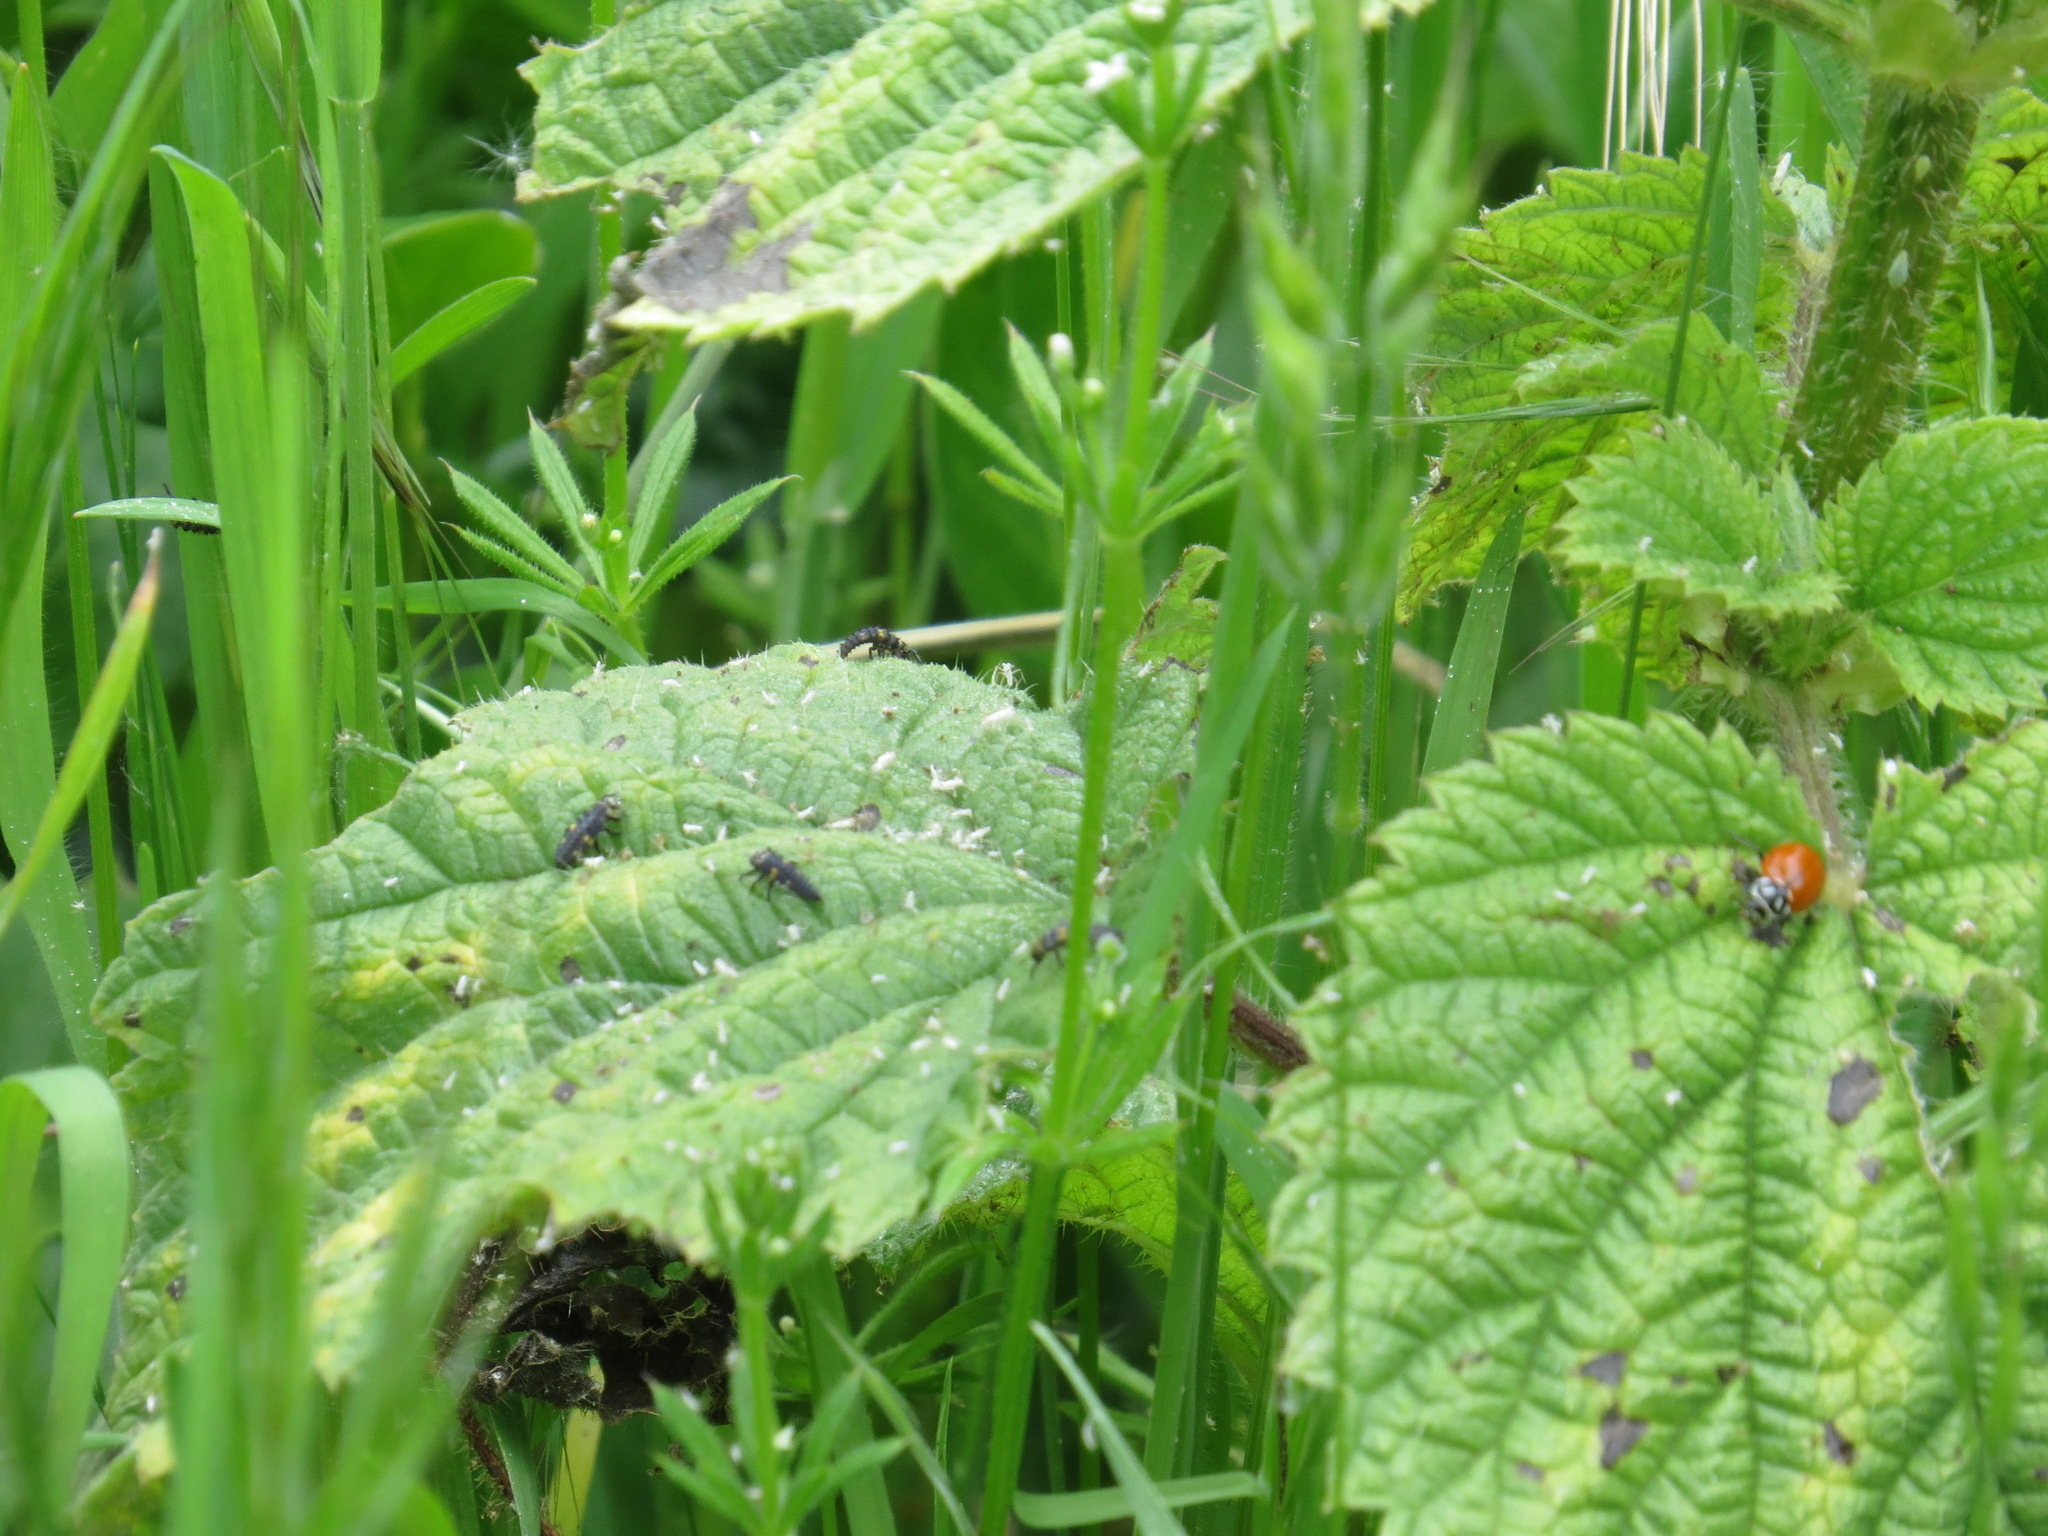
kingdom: Animalia
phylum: Arthropoda
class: Insecta
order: Coleoptera
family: Coccinellidae
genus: Hippodamia
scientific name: Hippodamia convergens
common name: Convergent lady beetle
